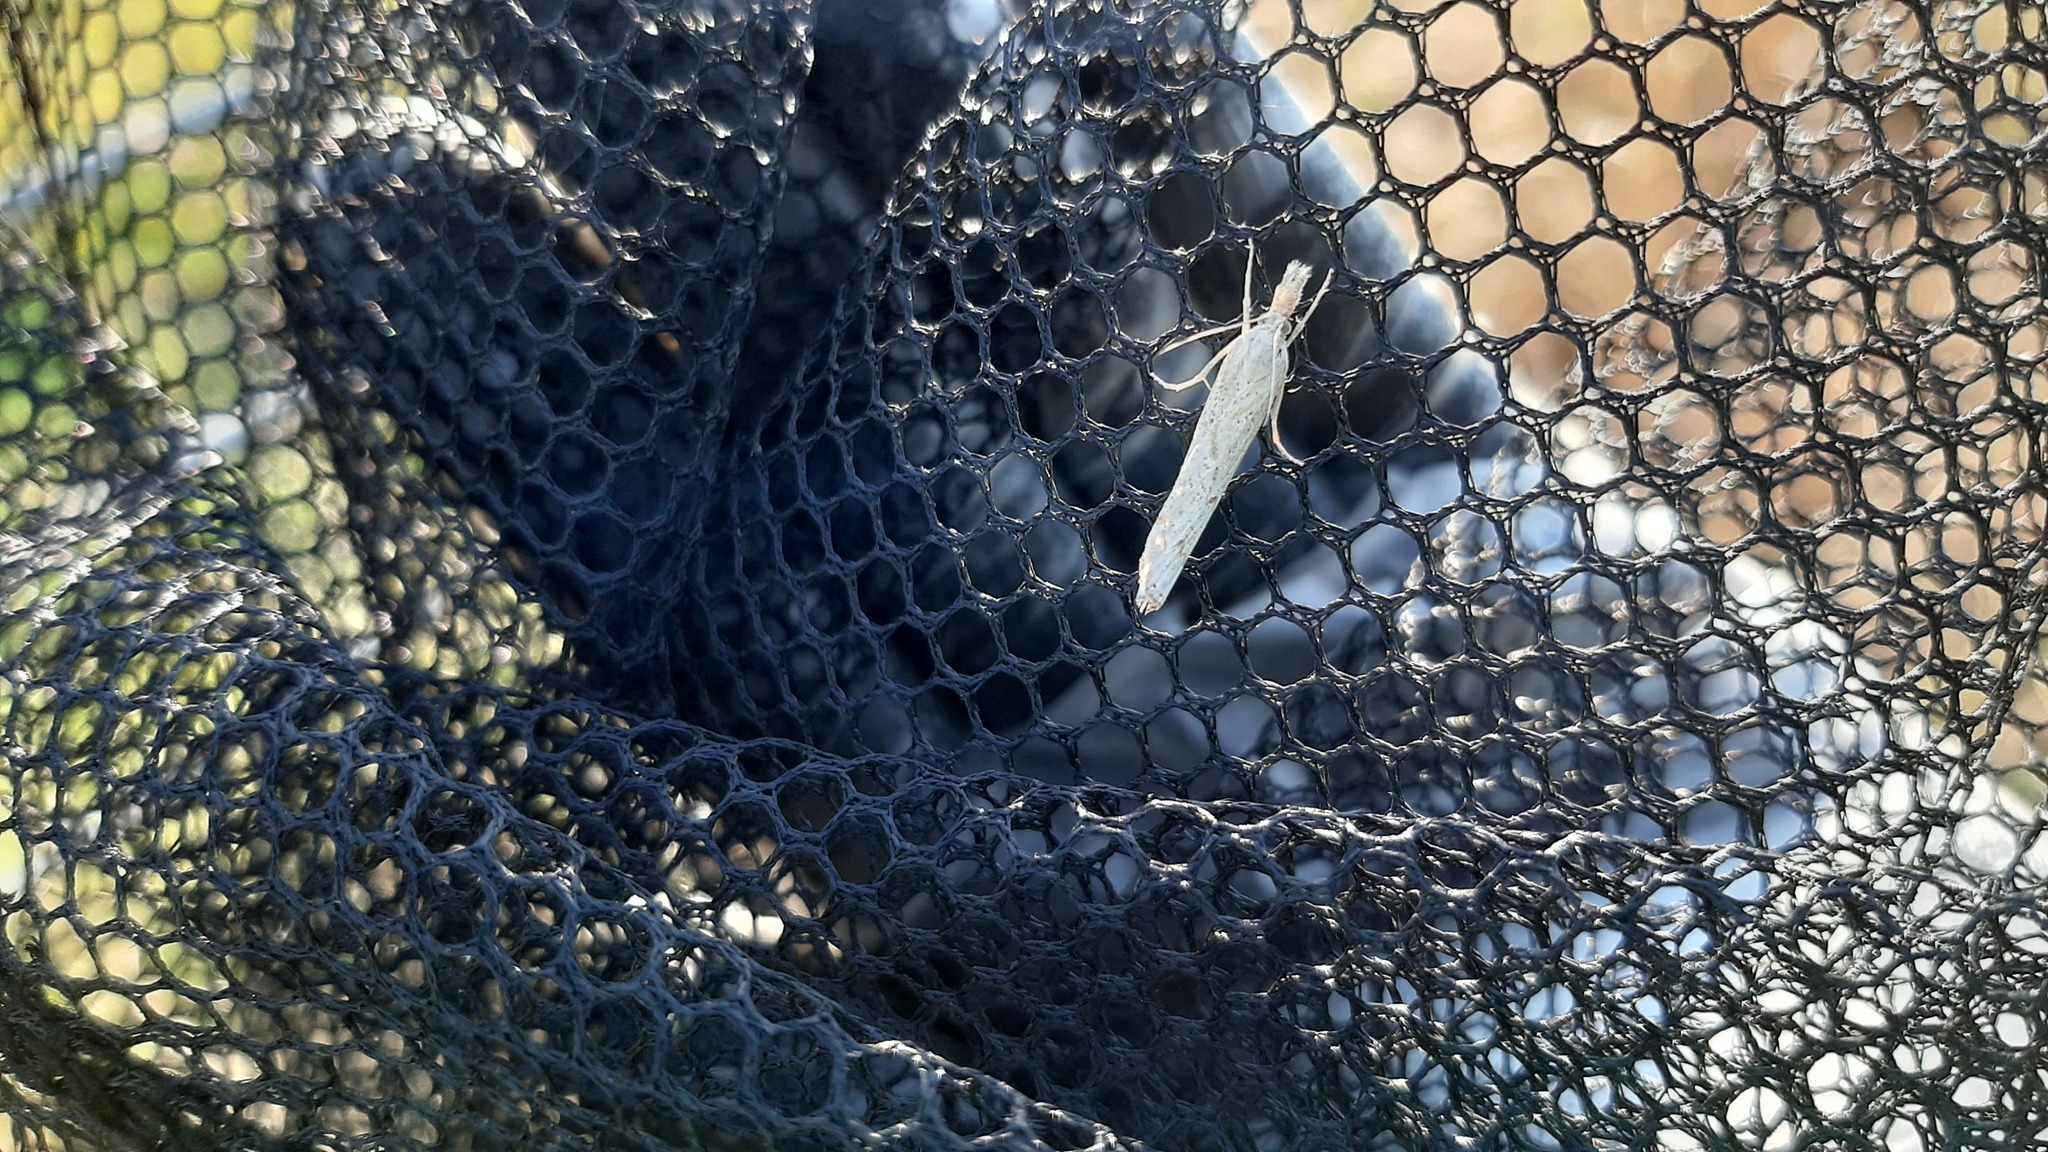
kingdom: Animalia
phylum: Arthropoda
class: Insecta
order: Lepidoptera
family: Crambidae
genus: Pediasia
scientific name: Pediasia contaminella
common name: Waste grass-veneer
